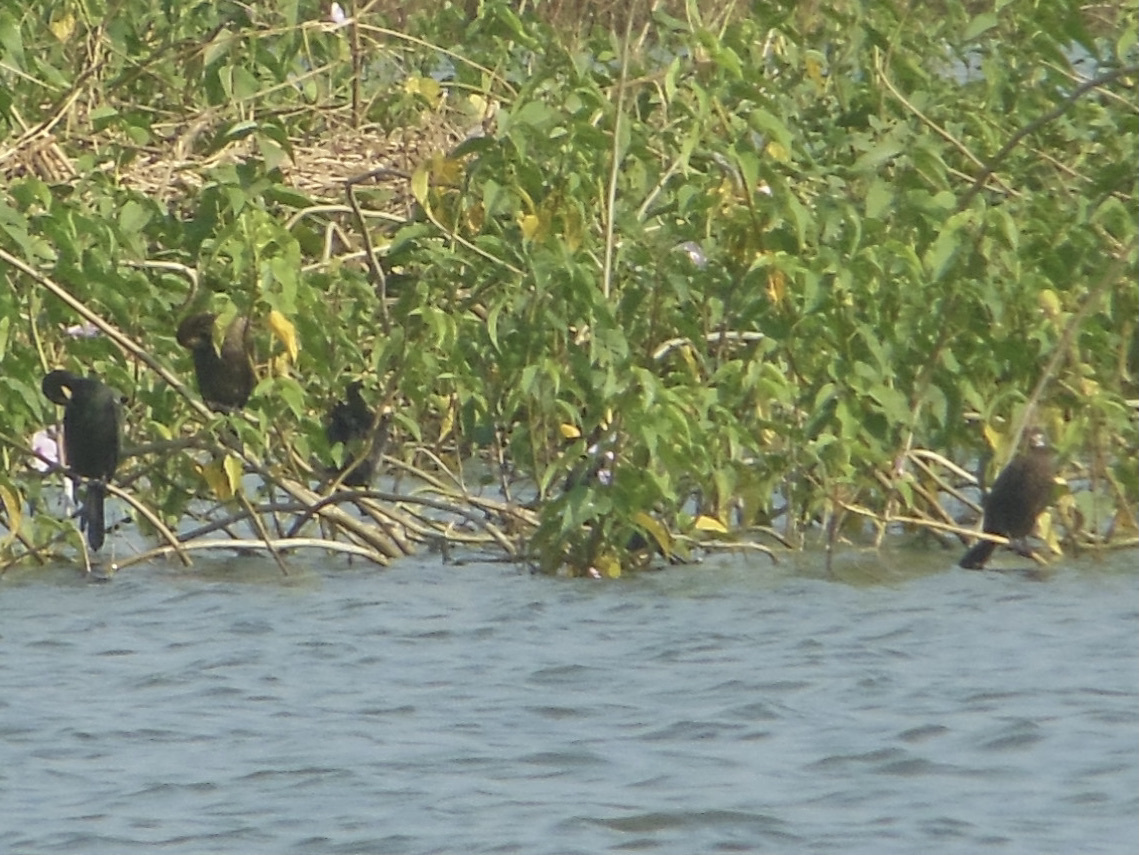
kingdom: Animalia
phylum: Chordata
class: Aves
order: Suliformes
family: Phalacrocoracidae
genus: Microcarbo
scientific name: Microcarbo niger
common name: Little cormorant
